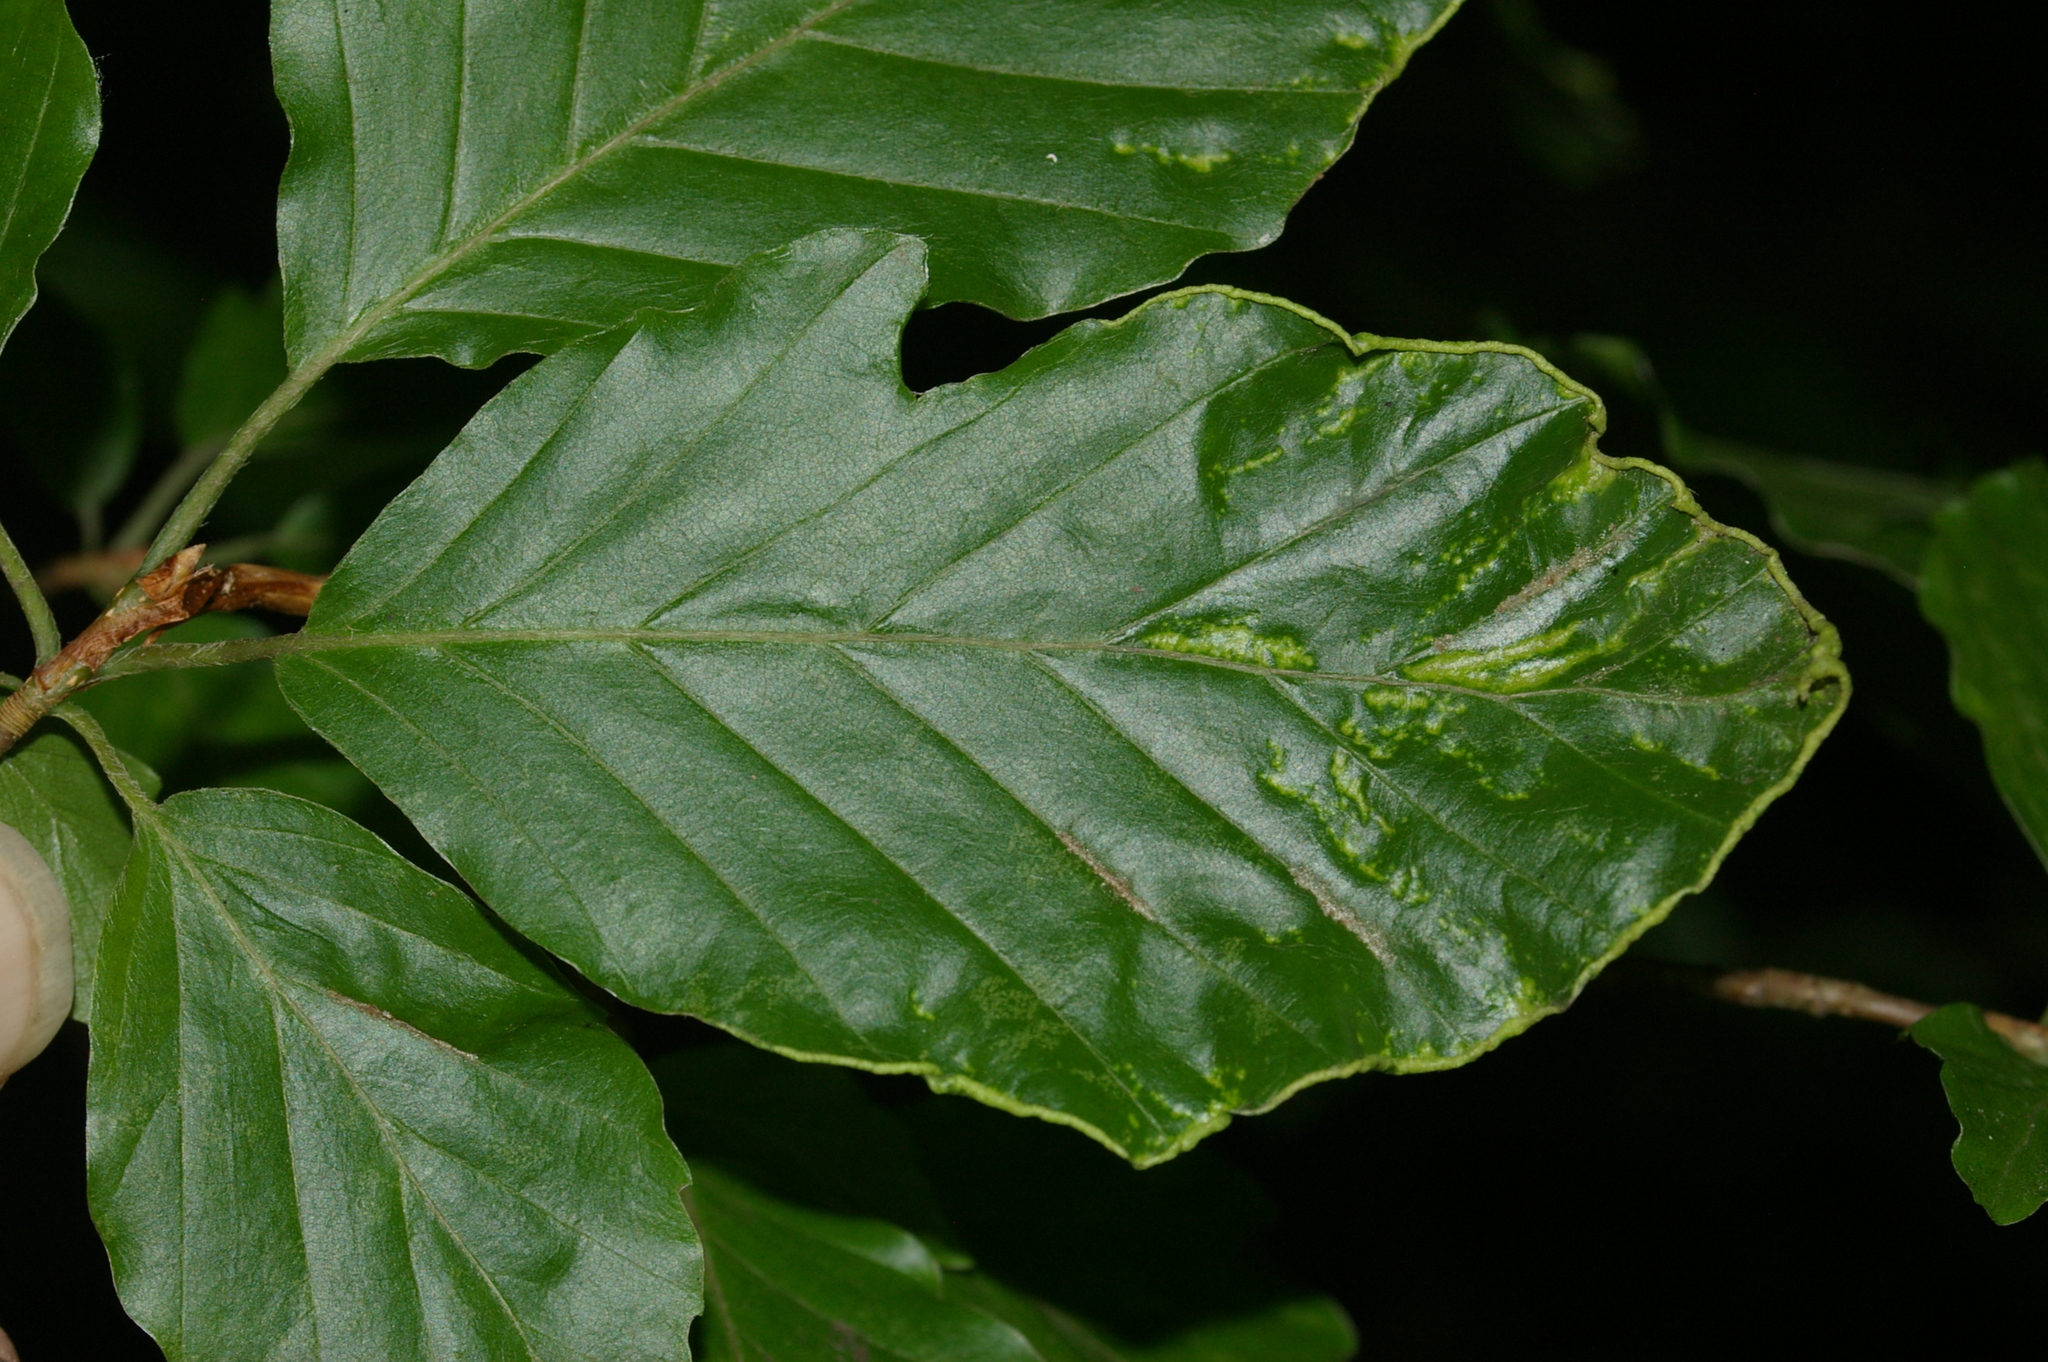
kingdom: Animalia
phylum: Arthropoda
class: Arachnida
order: Trombidiformes
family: Eriophyidae
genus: Acalitus
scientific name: Acalitus stenaspis
